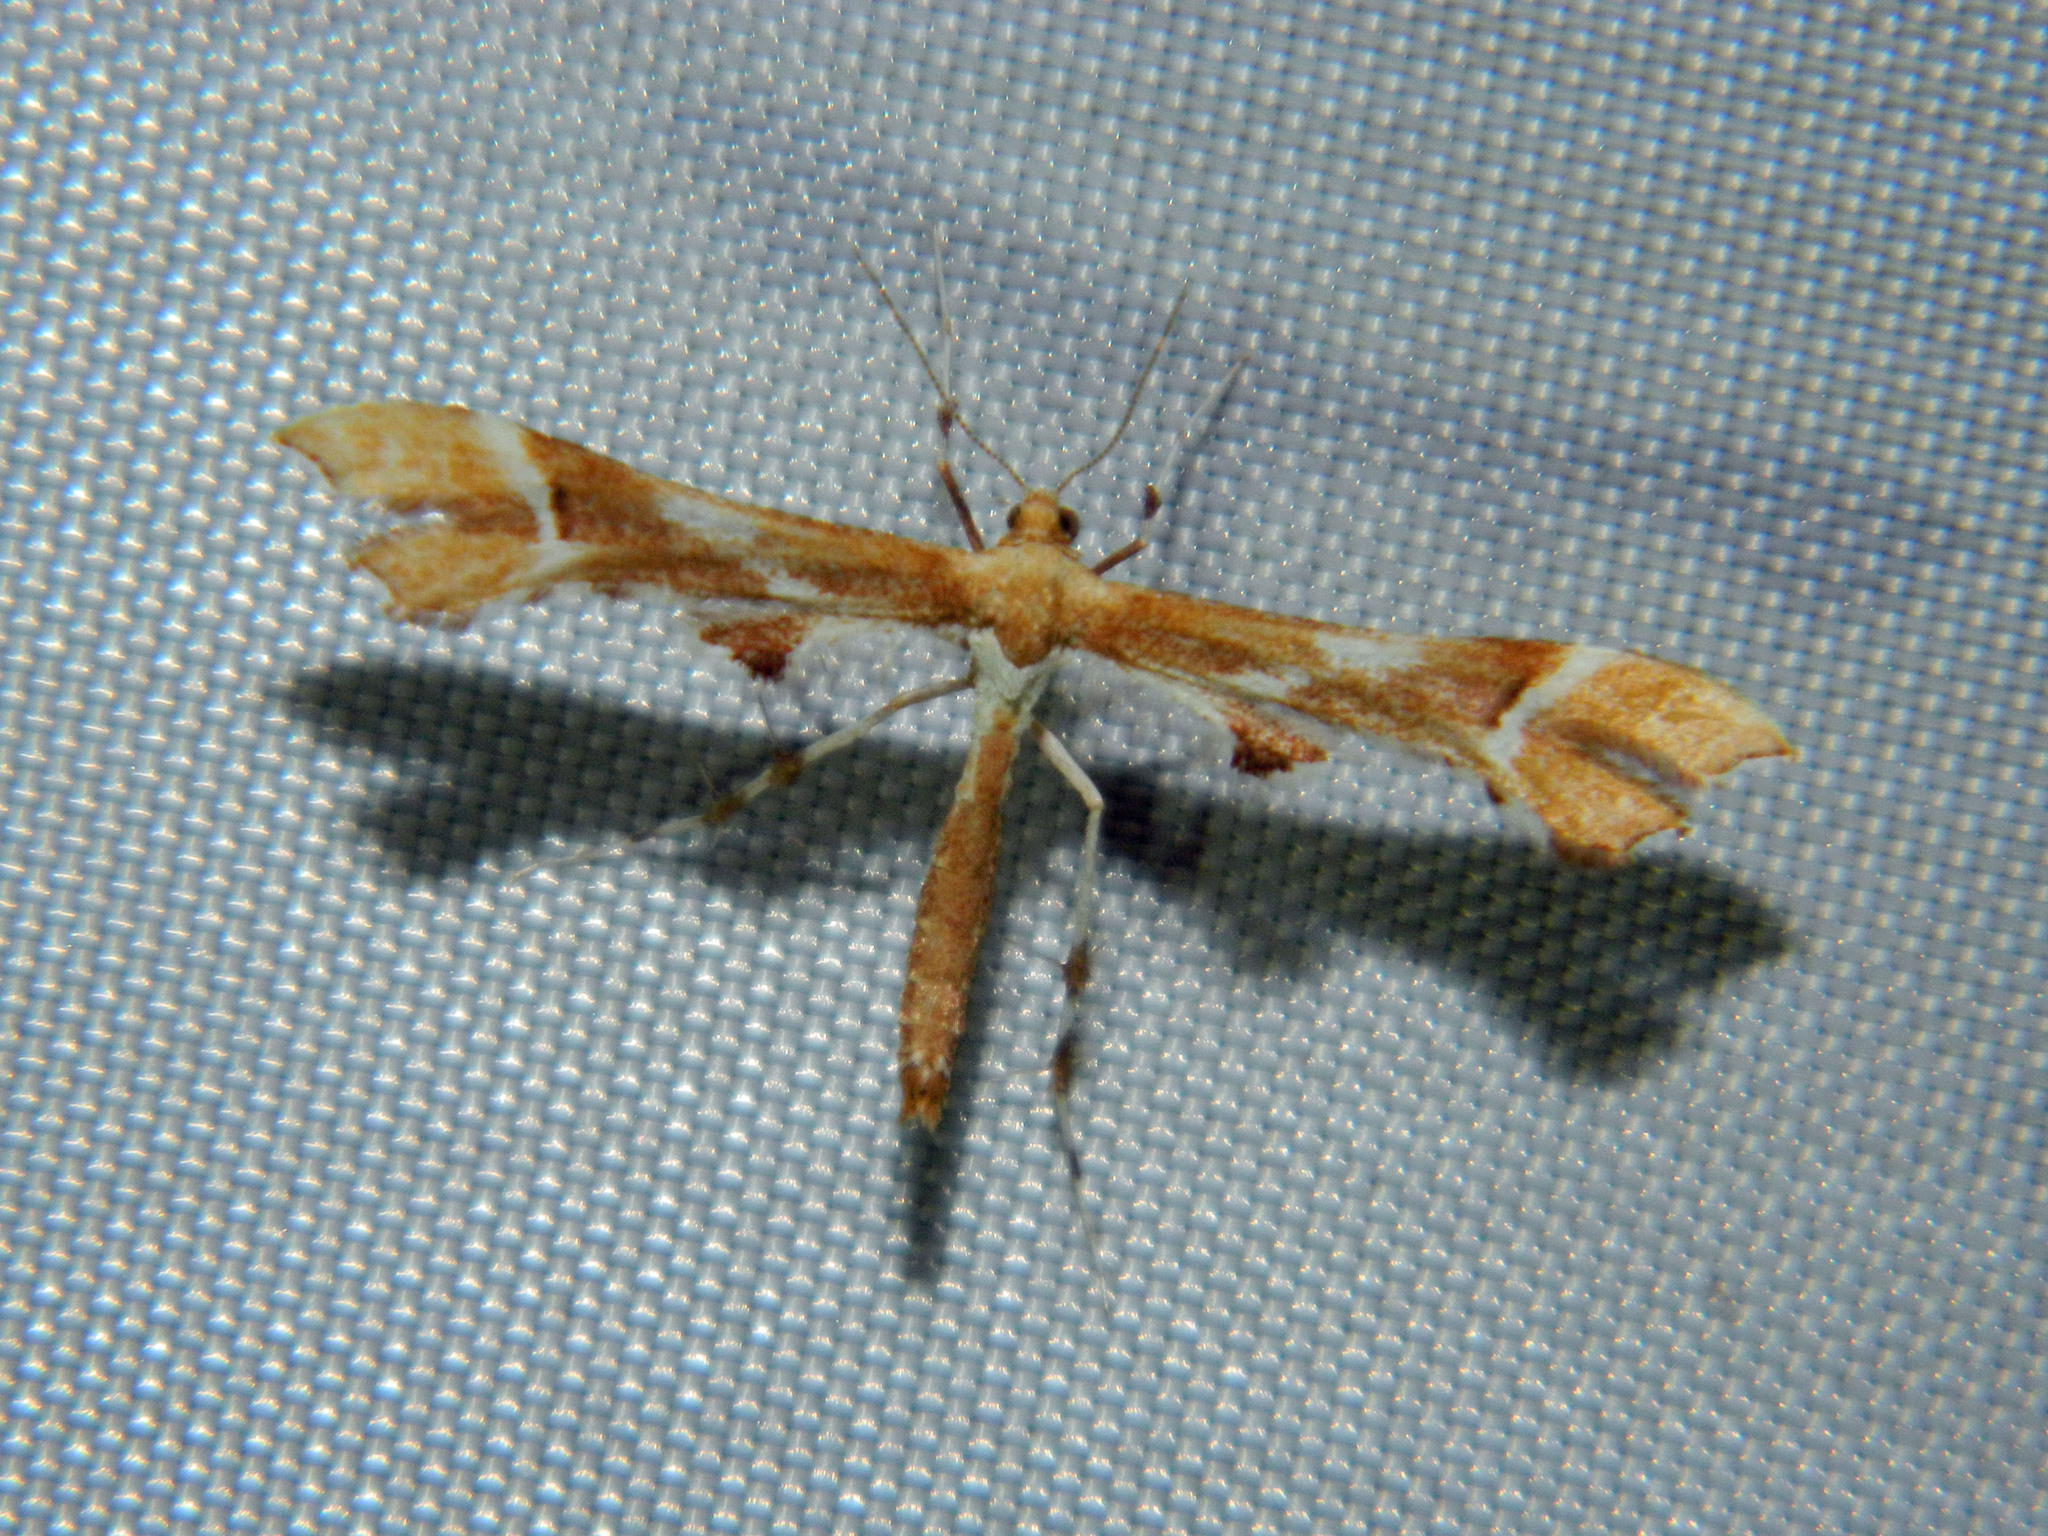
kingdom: Animalia
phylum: Arthropoda
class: Insecta
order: Lepidoptera
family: Pterophoridae
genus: Cnaemidophorus
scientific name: Cnaemidophorus rhododactyla
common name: Rose plume
